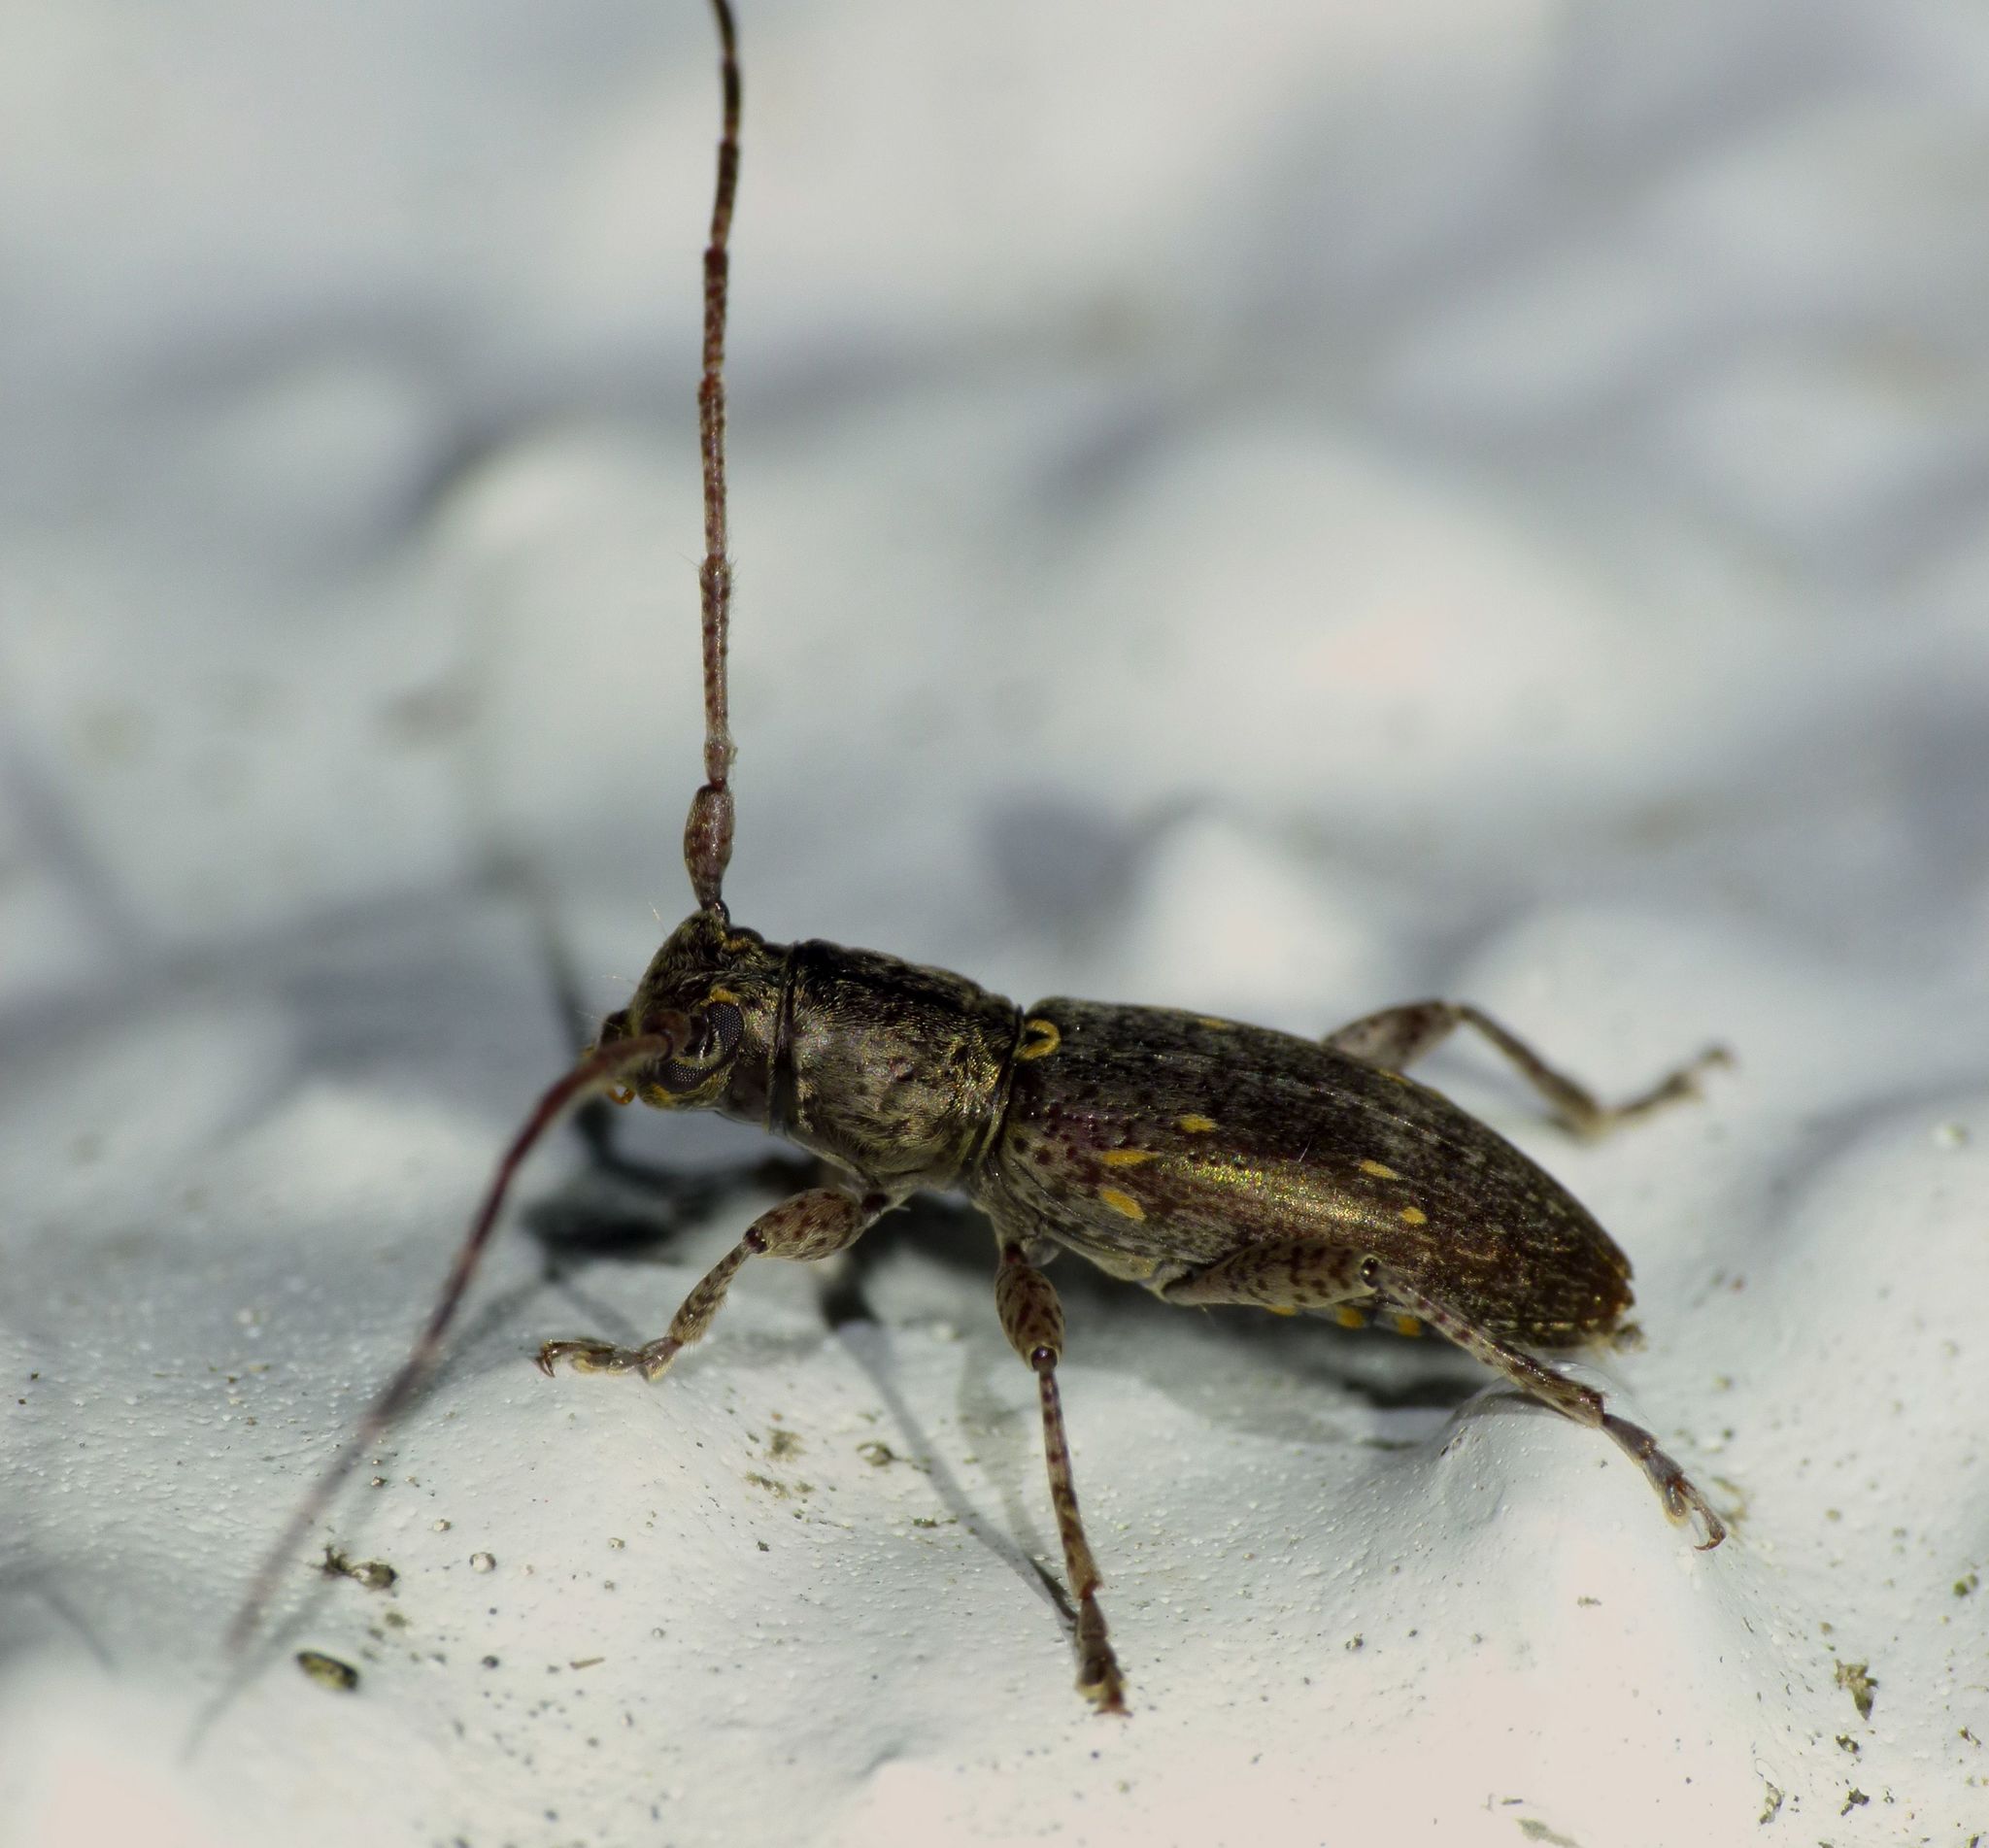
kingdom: Animalia
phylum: Arthropoda
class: Insecta
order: Coleoptera
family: Cerambycidae
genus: Xylotoles
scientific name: Xylotoles griseus
